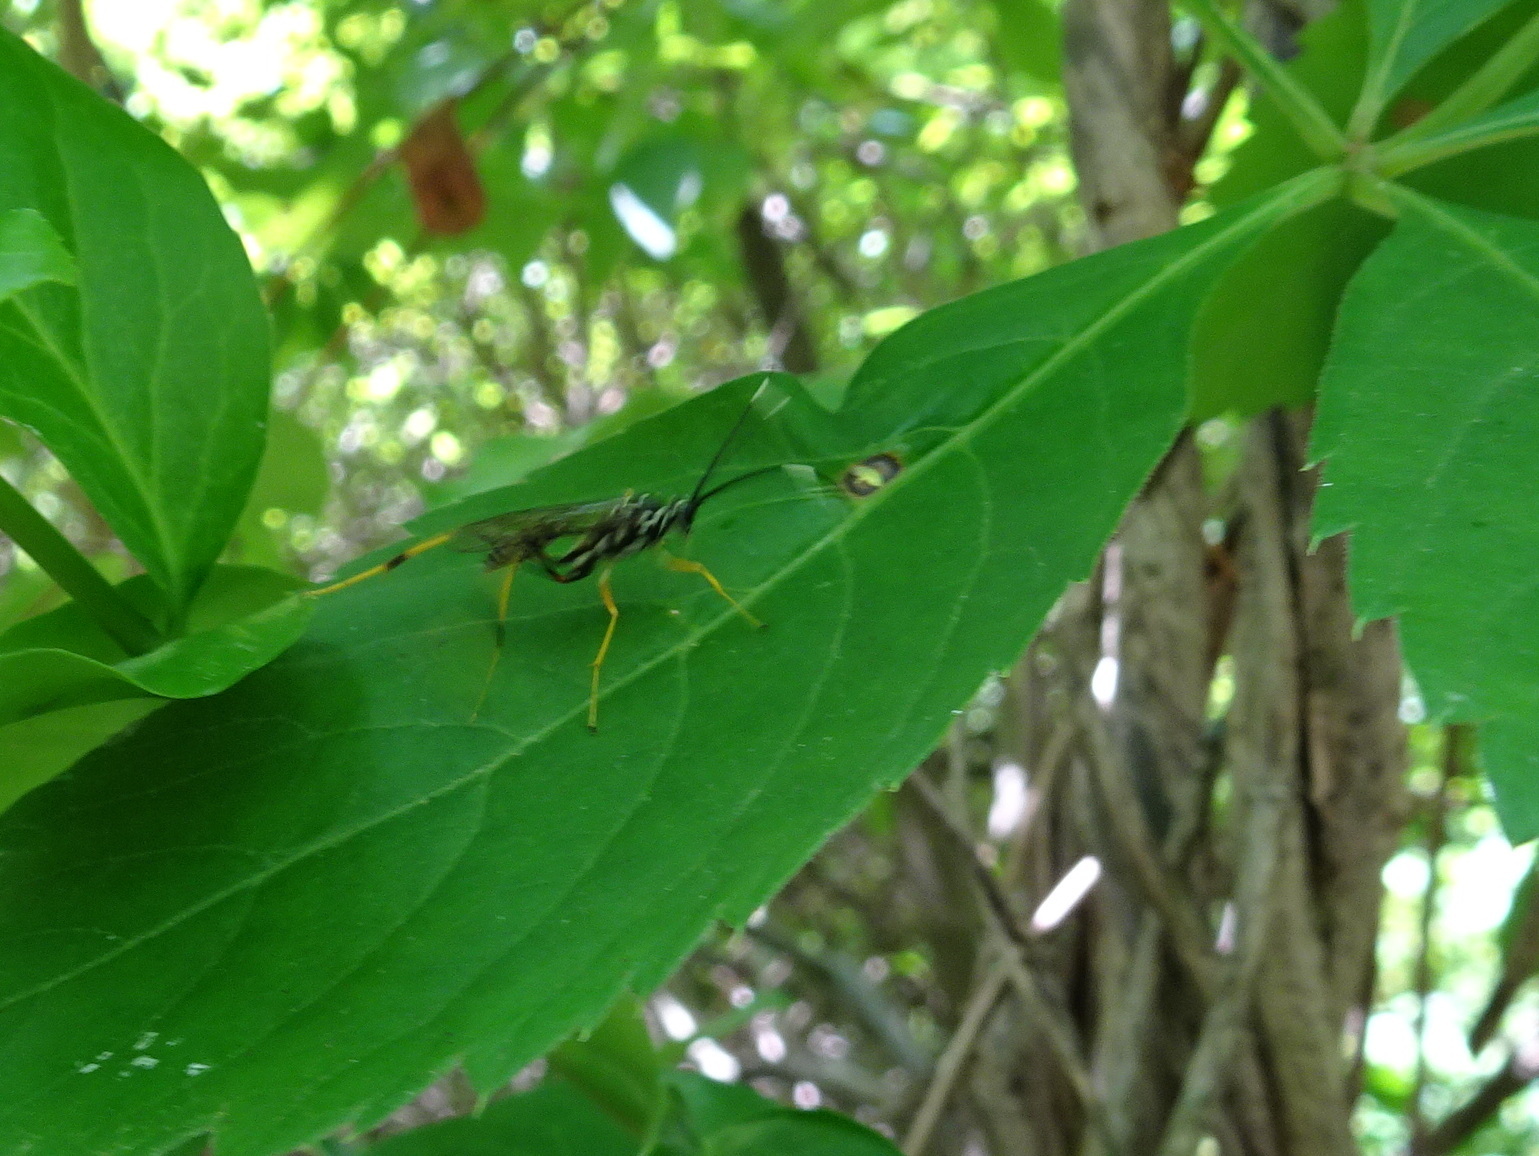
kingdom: Animalia
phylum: Arthropoda
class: Insecta
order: Hymenoptera
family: Ichneumonidae
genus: Cryptanura
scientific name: Cryptanura spinaria
